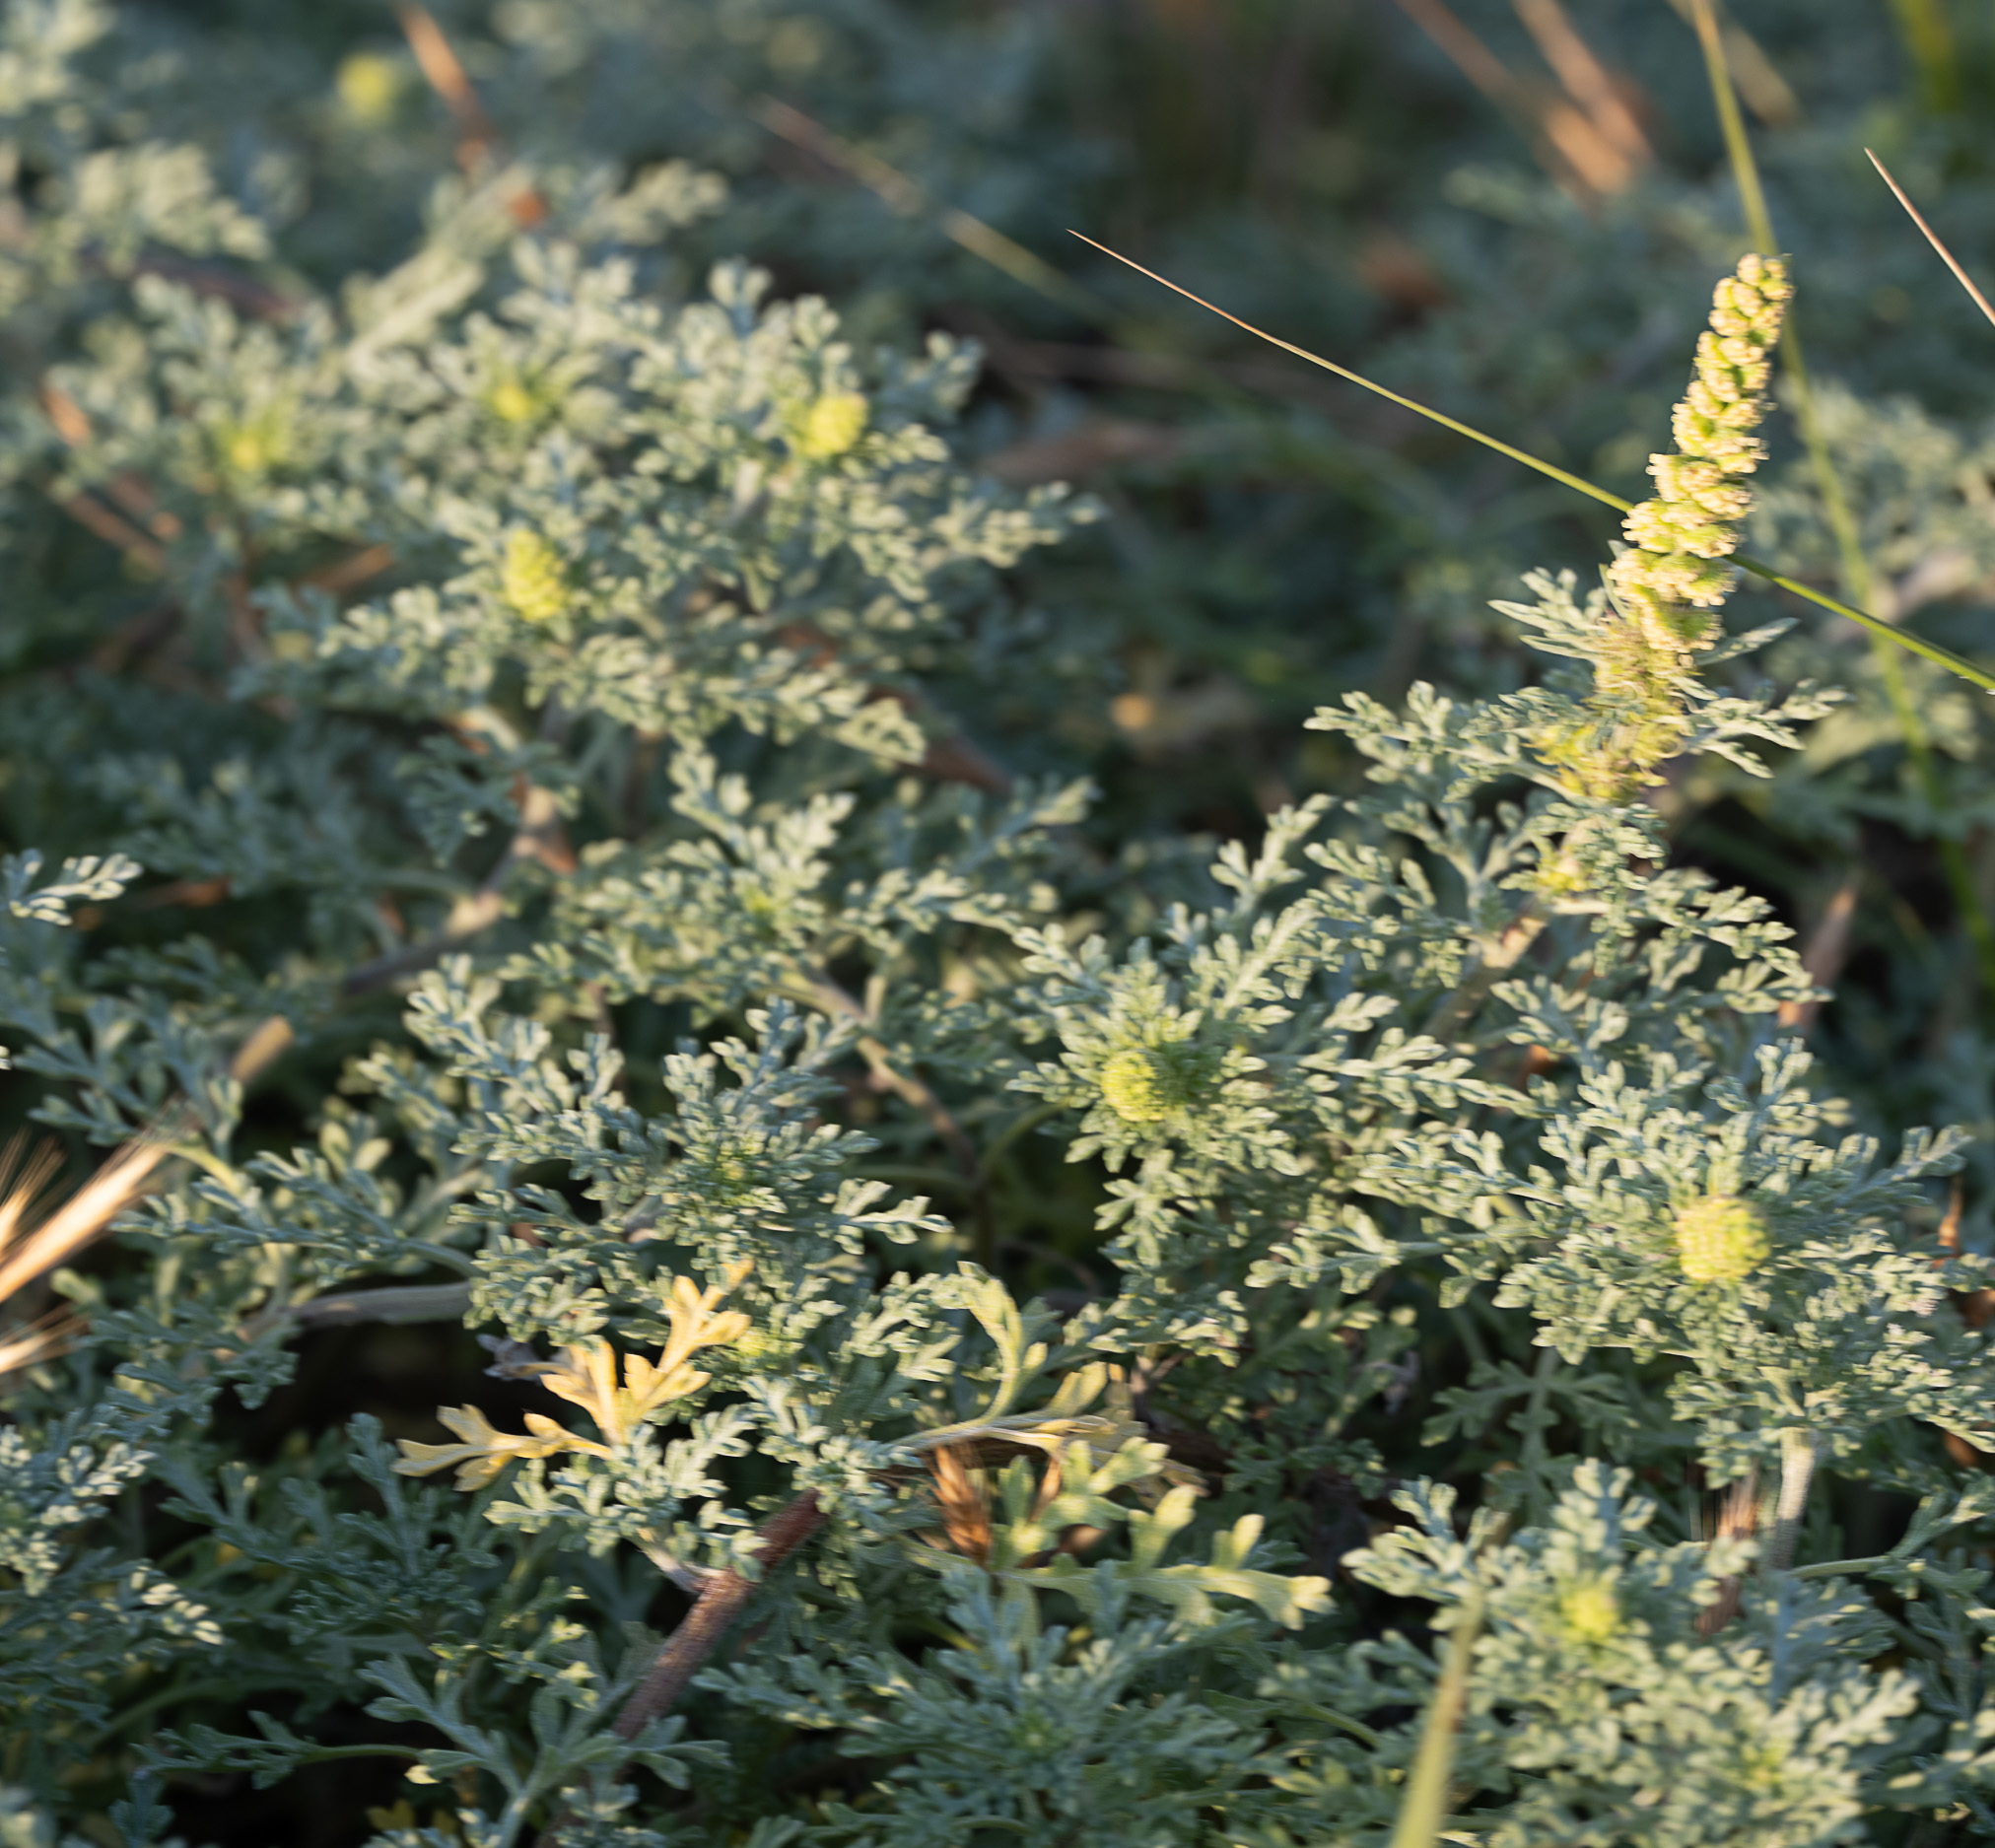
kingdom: Plantae
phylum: Tracheophyta
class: Magnoliopsida
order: Asterales
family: Asteraceae
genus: Ambrosia
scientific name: Ambrosia chamissonis
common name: Beachbur
